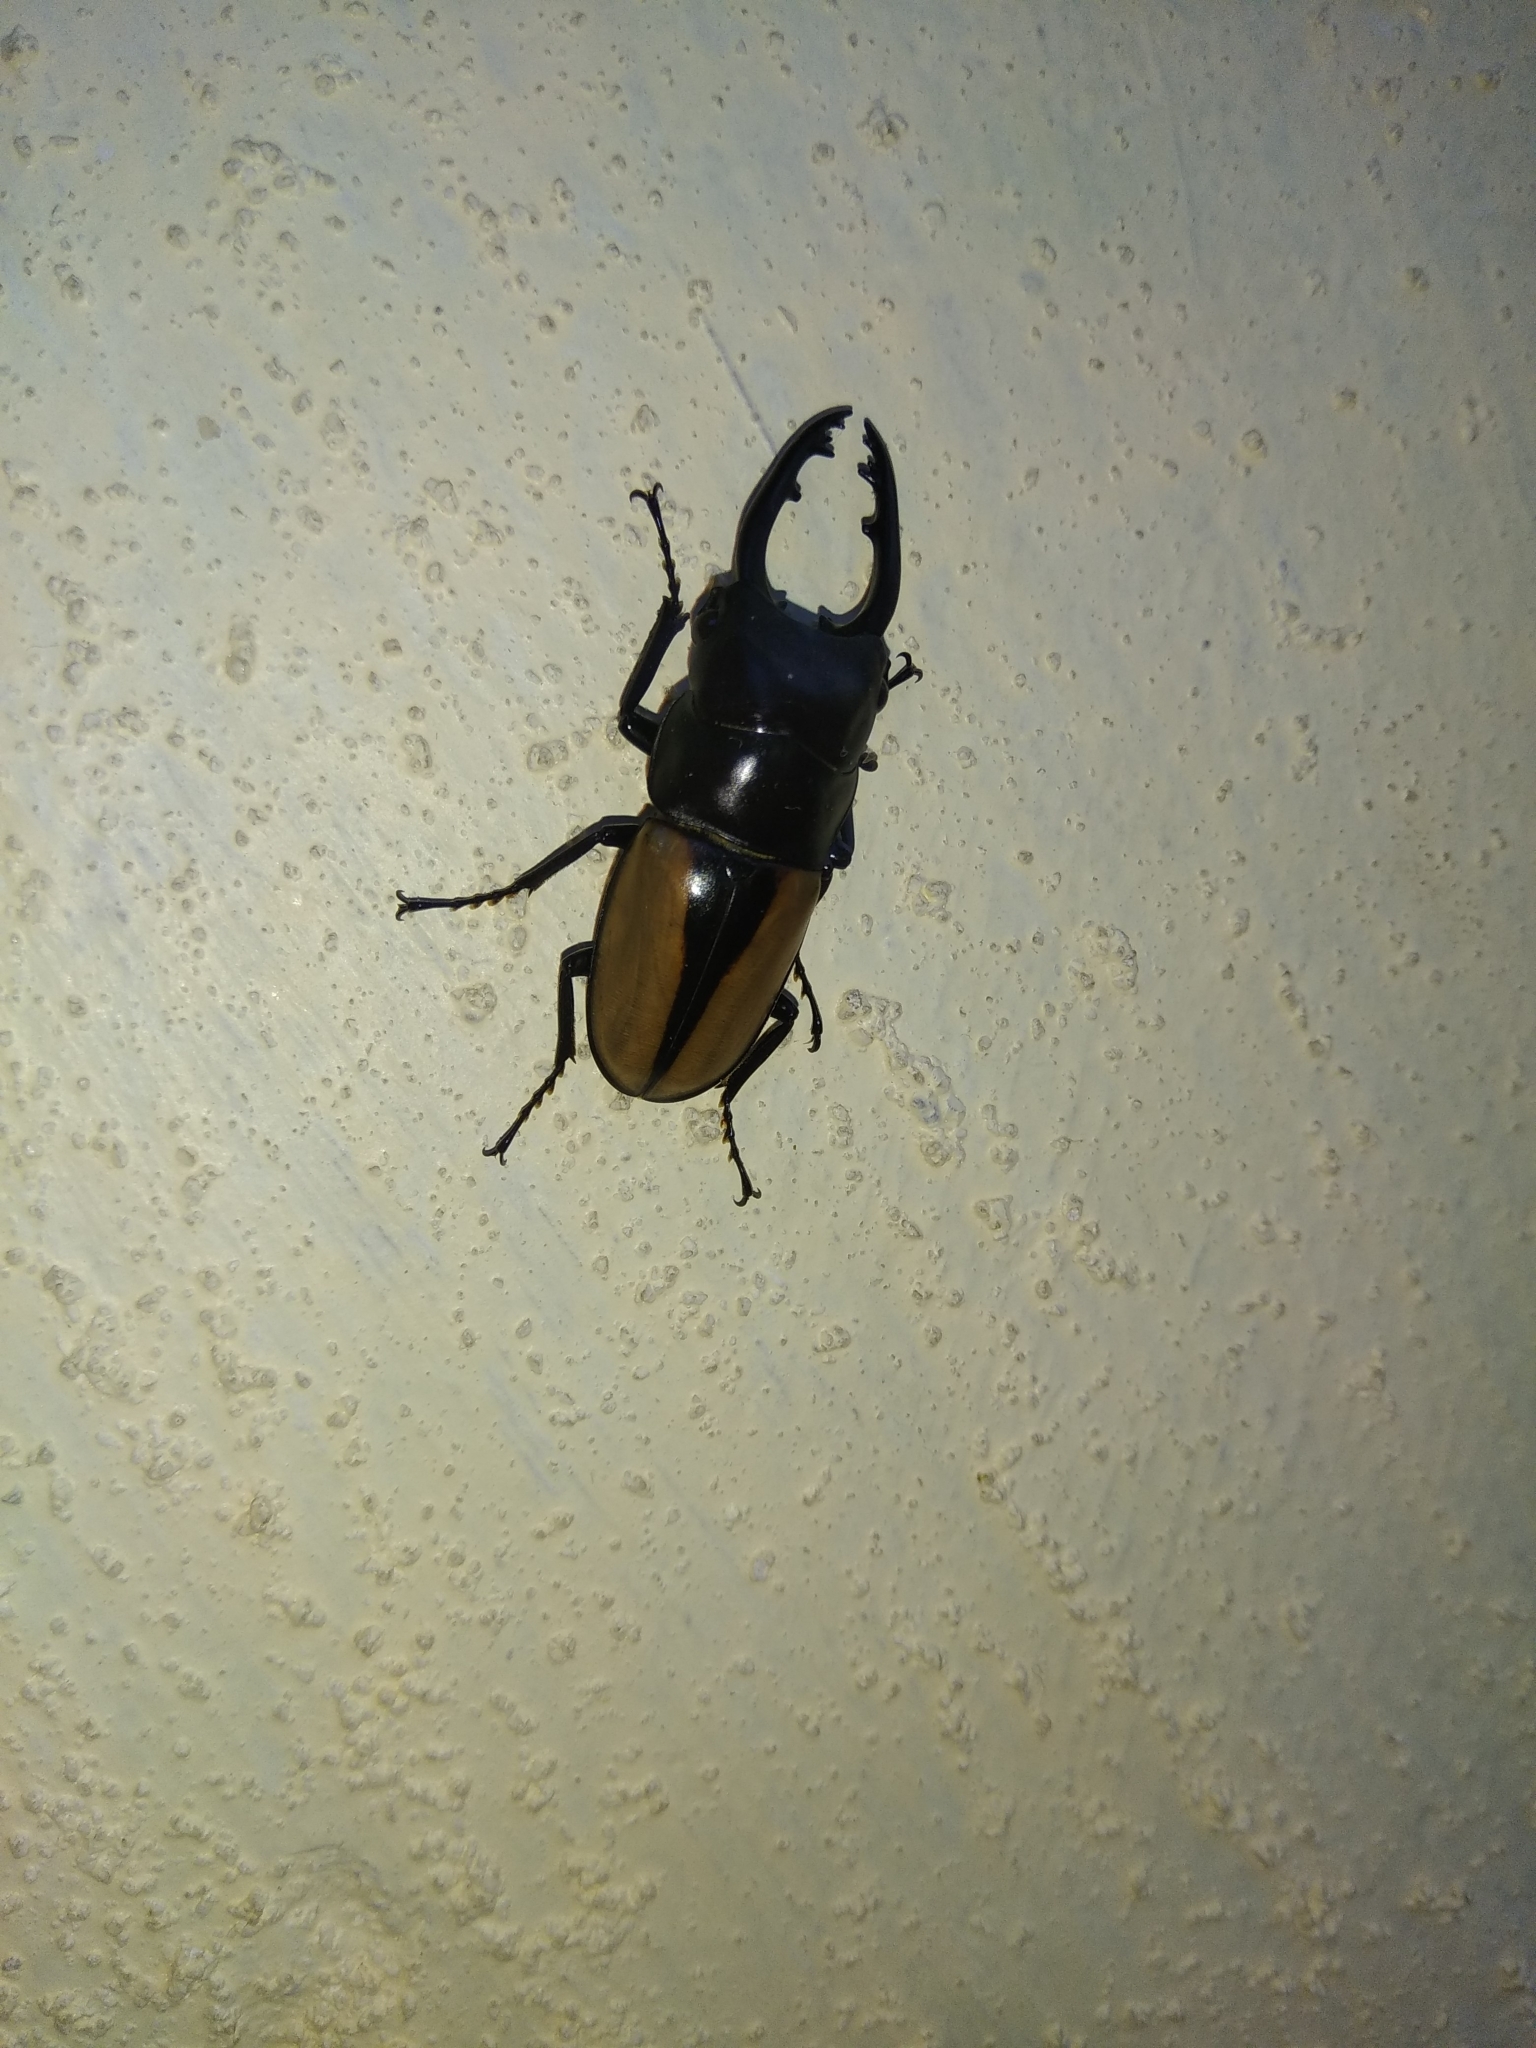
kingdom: Animalia
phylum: Arthropoda
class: Insecta
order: Coleoptera
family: Lucanidae
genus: Prosopocoilus
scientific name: Prosopocoilus speciosus
